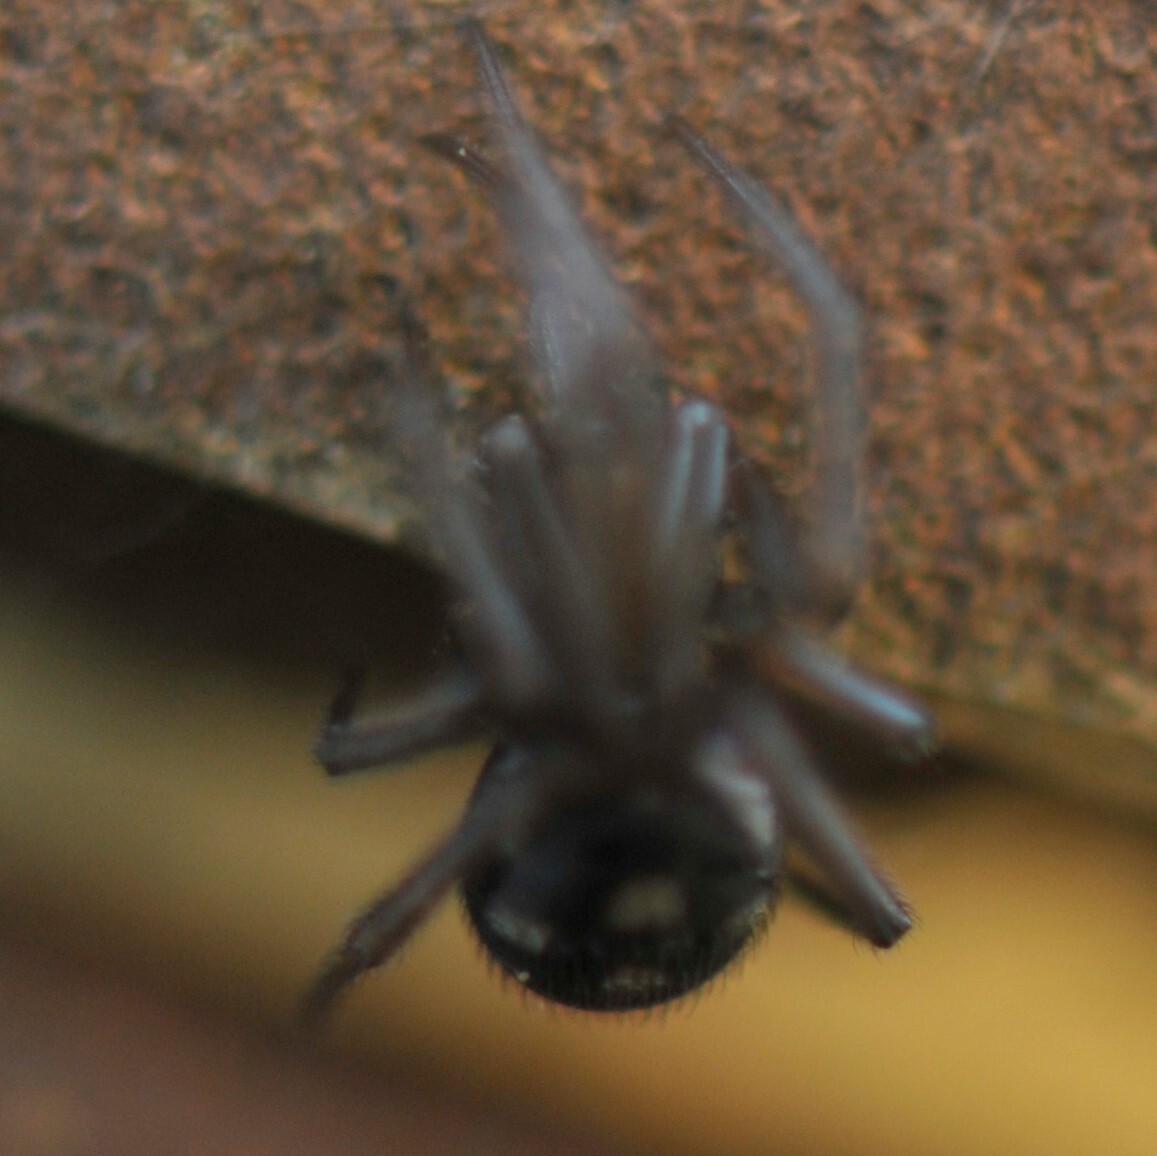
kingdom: Animalia
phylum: Arthropoda
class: Arachnida
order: Araneae
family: Theridiidae
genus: Steatoda
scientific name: Steatoda grossa
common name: False black widow
